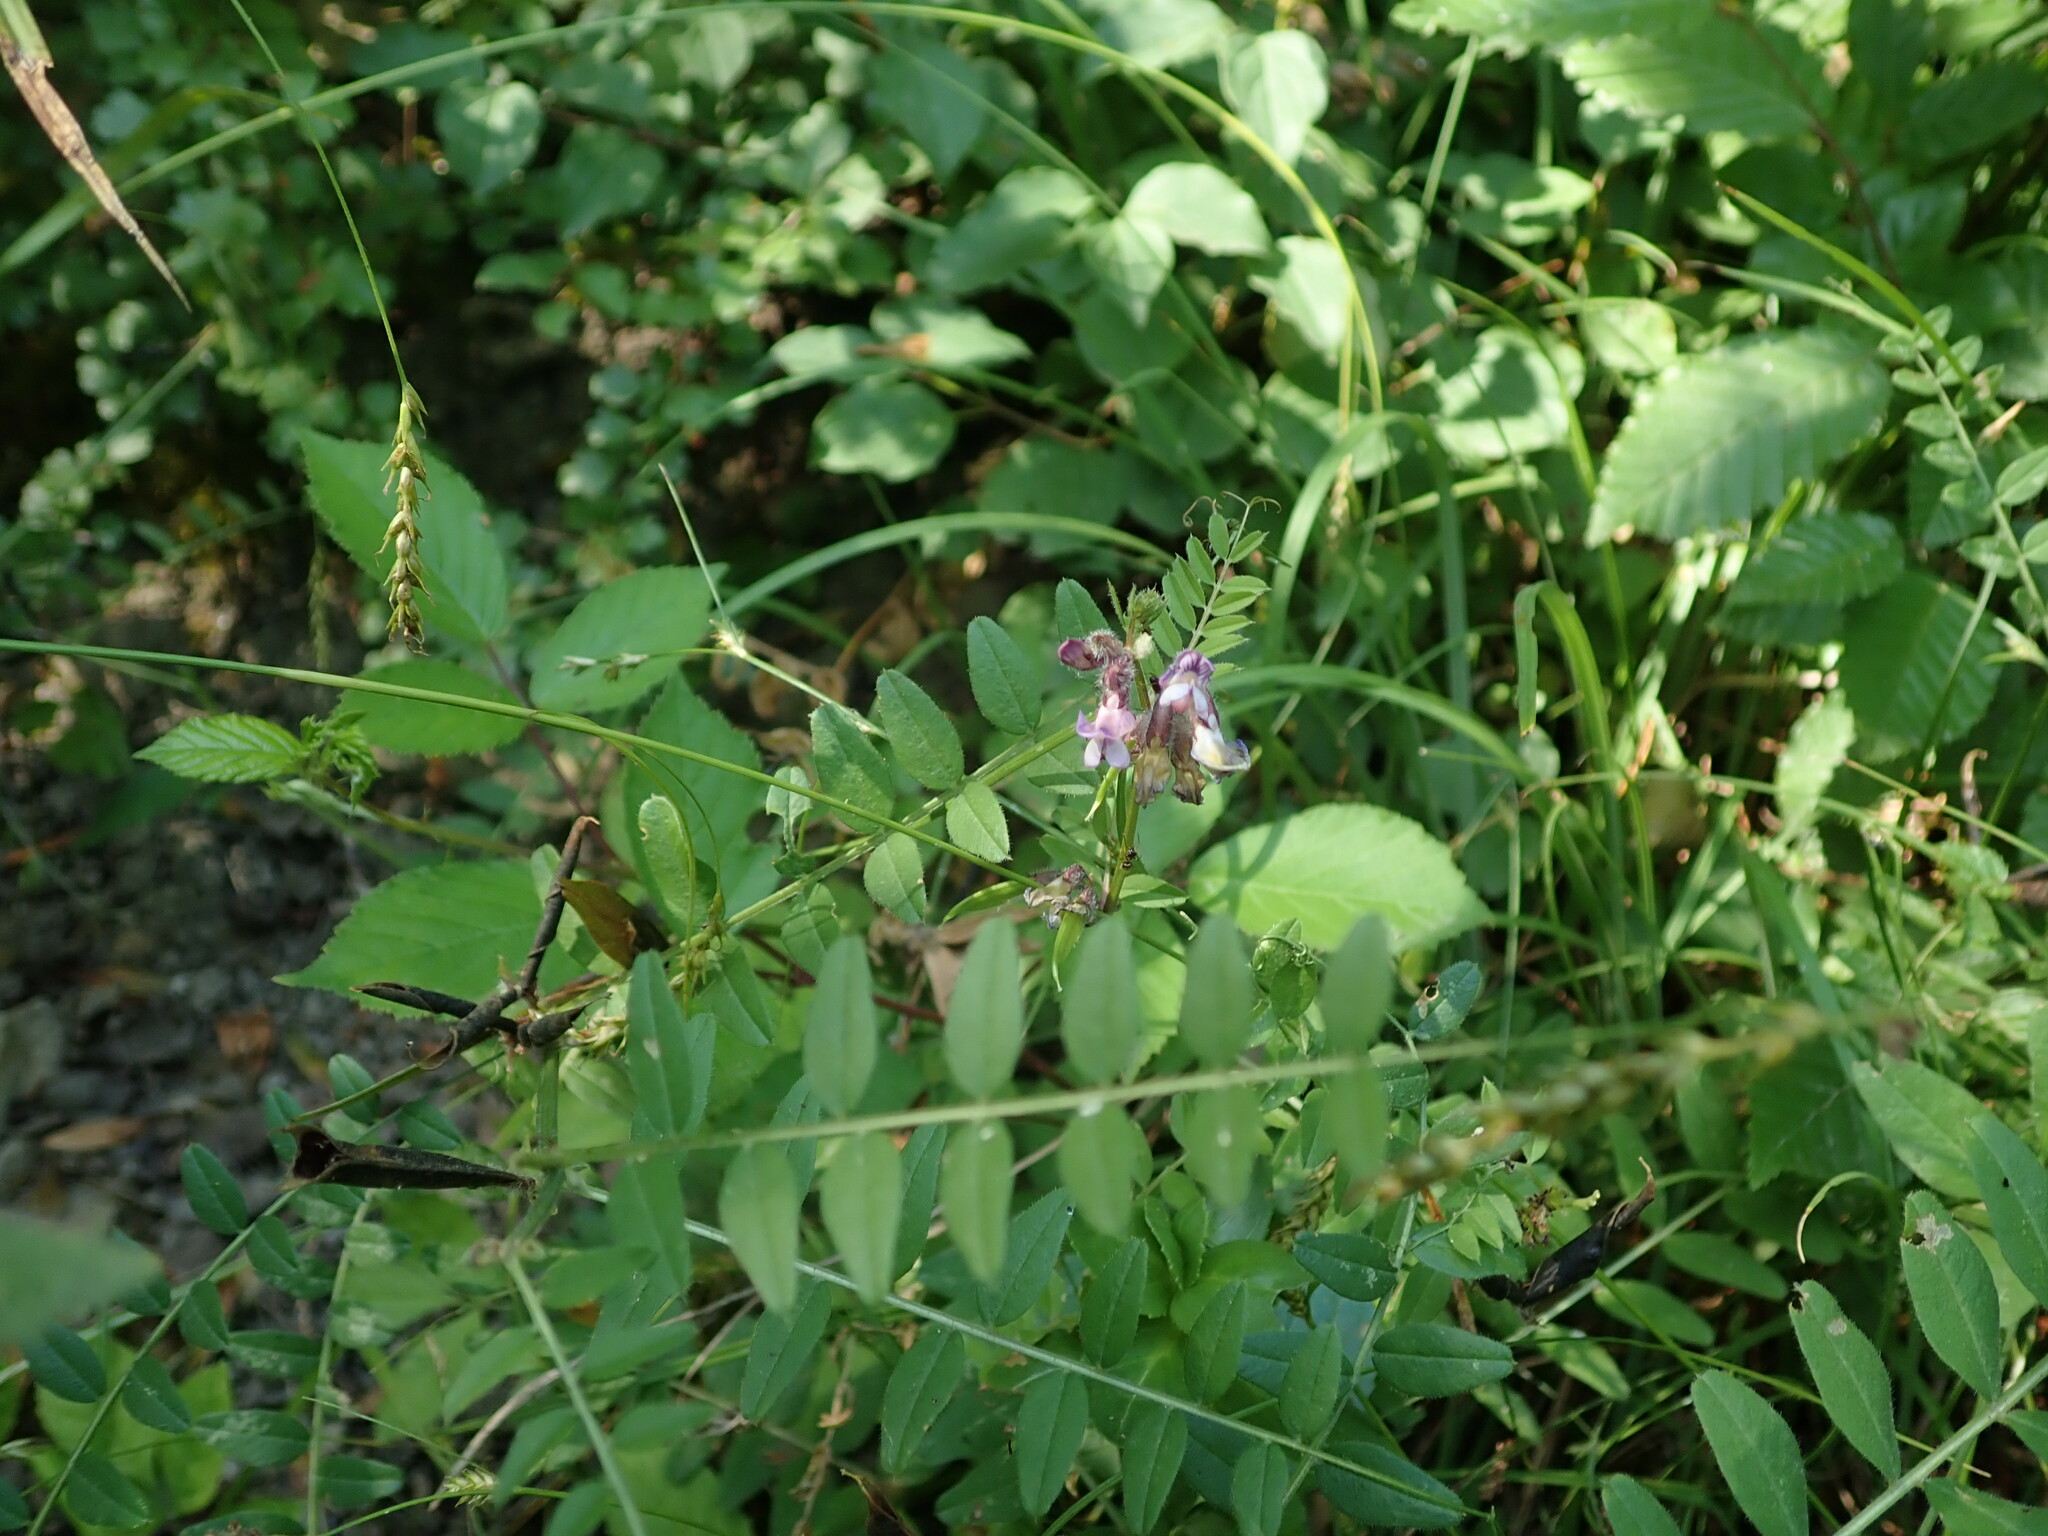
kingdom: Plantae
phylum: Tracheophyta
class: Magnoliopsida
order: Fabales
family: Fabaceae
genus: Vicia
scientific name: Vicia sepium
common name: Bush vetch
